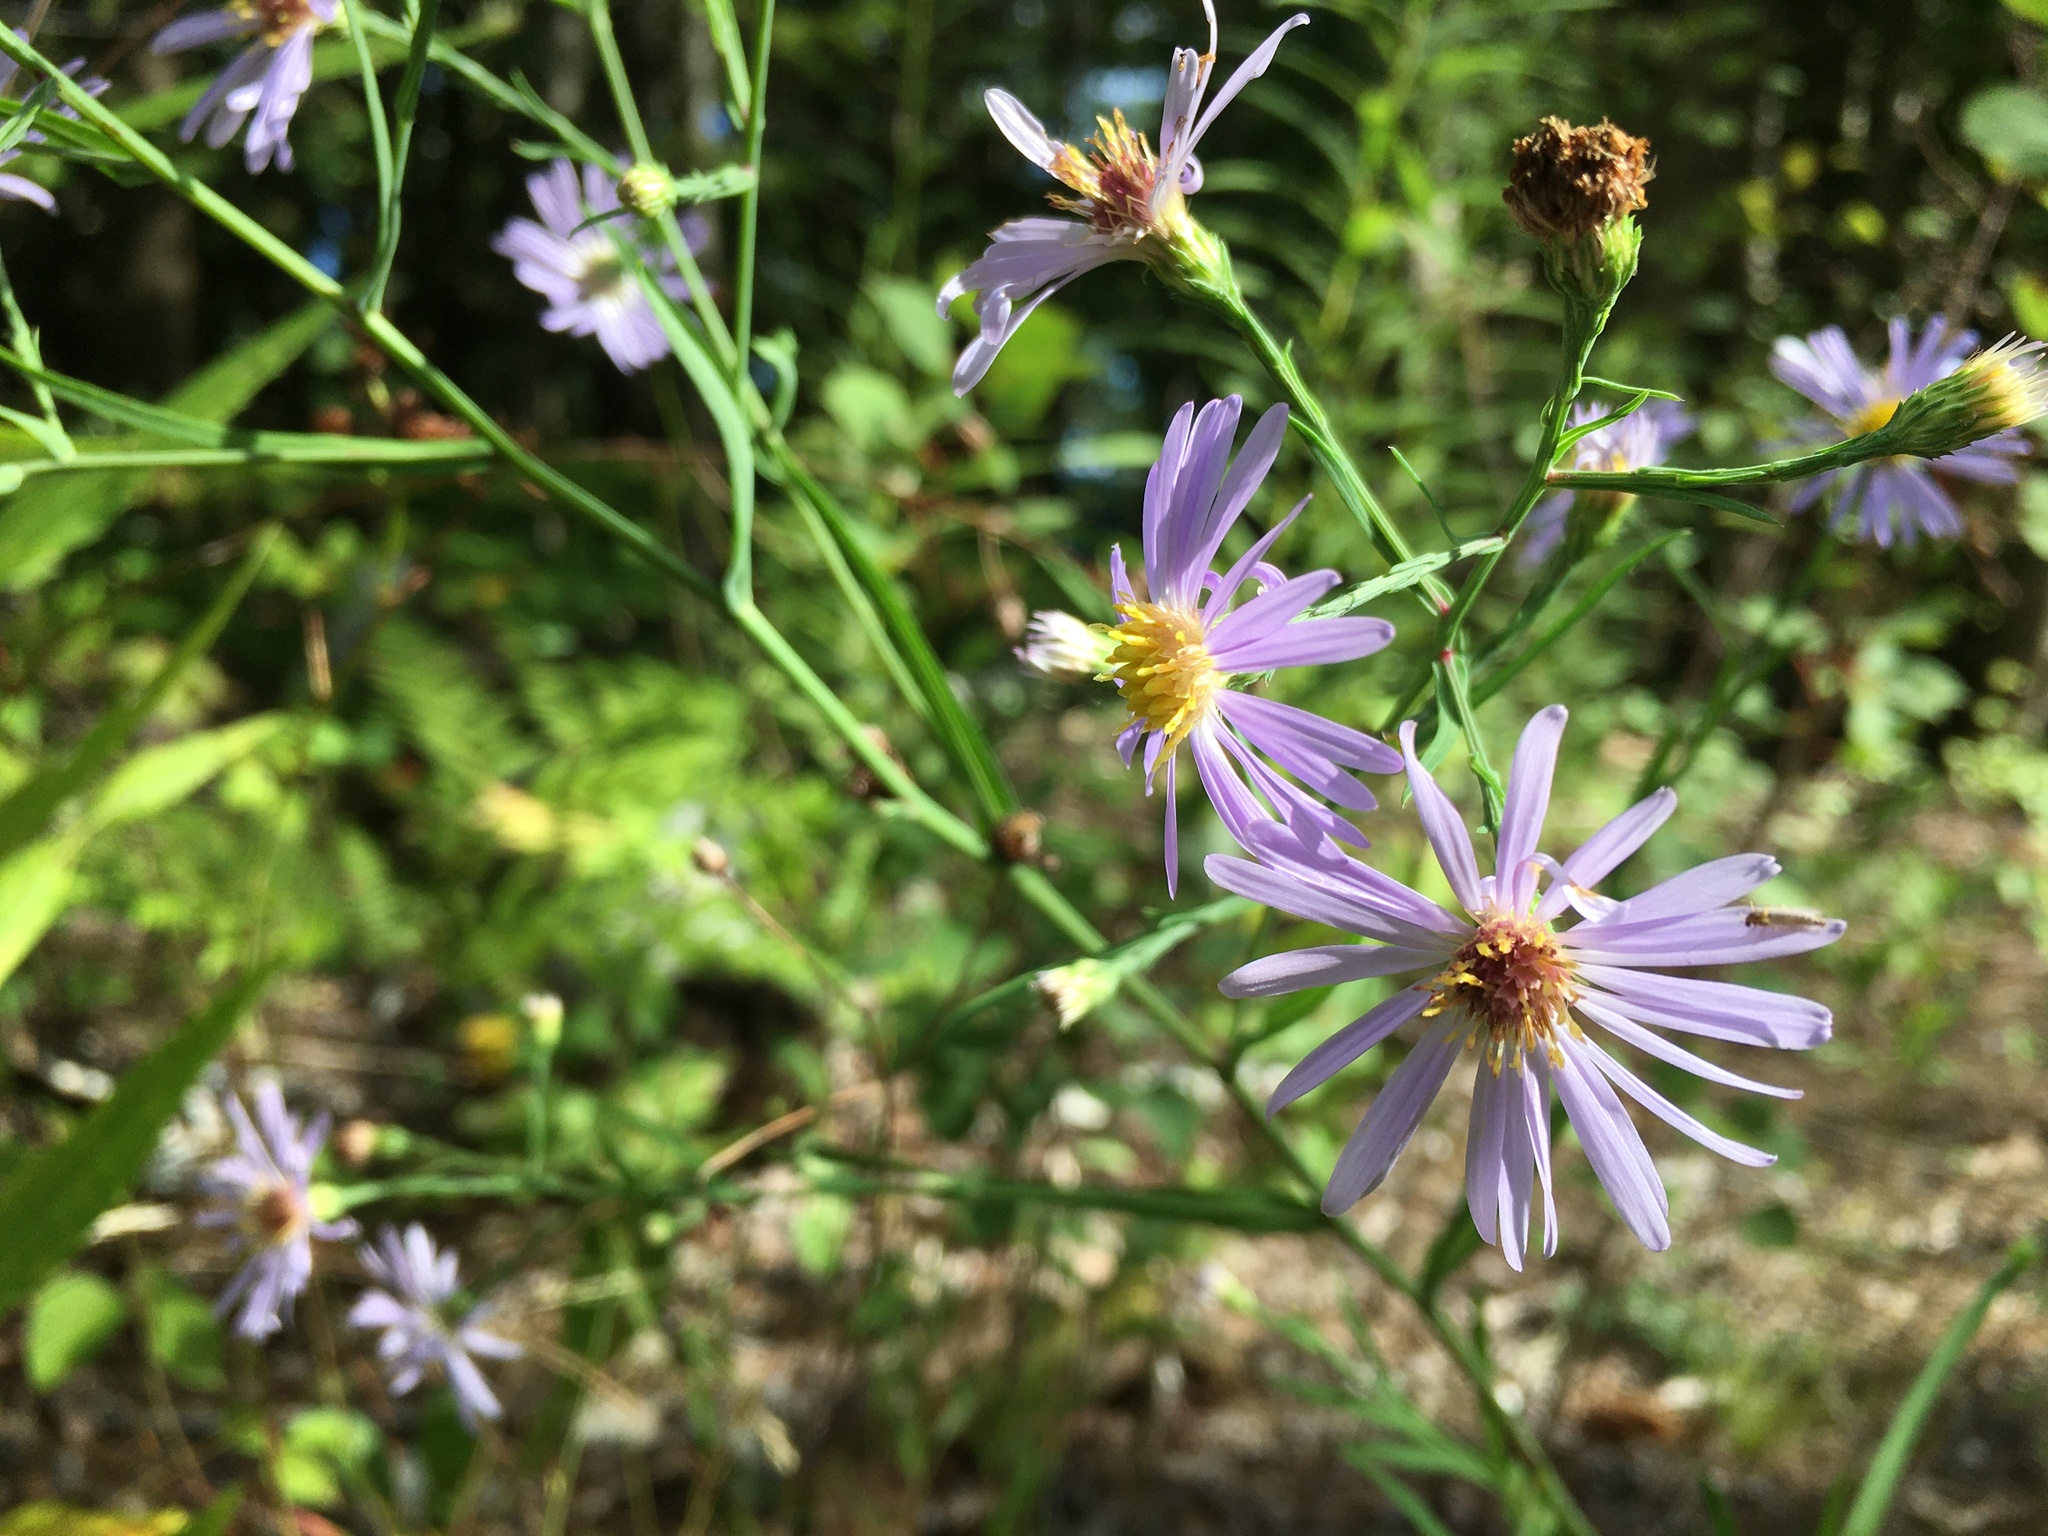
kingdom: Plantae
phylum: Tracheophyta
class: Magnoliopsida
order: Asterales
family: Asteraceae
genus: Symphyotrichum
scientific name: Symphyotrichum laeve
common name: Glaucous aster
